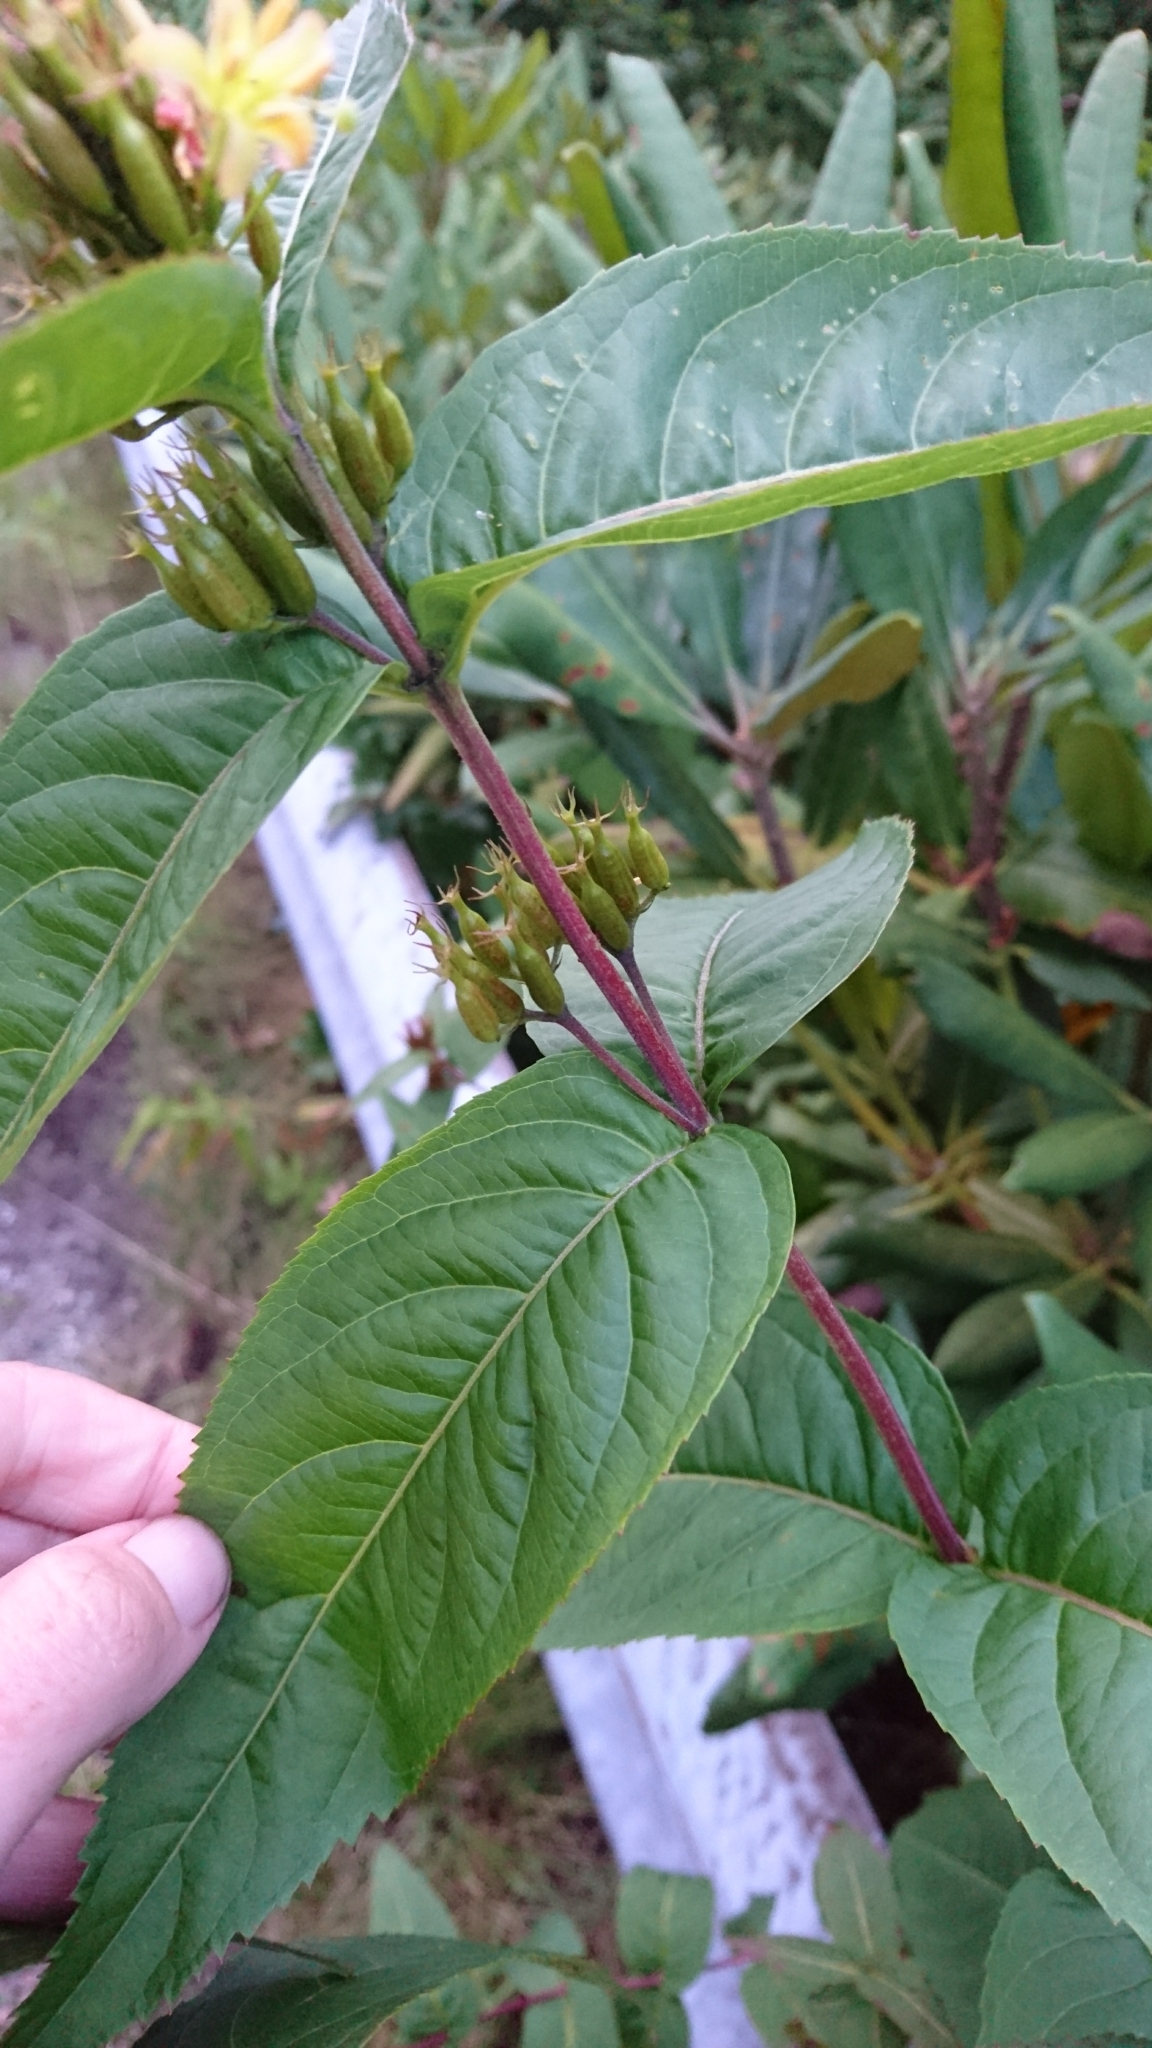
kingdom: Plantae
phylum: Tracheophyta
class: Magnoliopsida
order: Dipsacales
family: Caprifoliaceae
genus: Diervilla
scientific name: Diervilla sessilifolia
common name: Bush-honeysuckle
